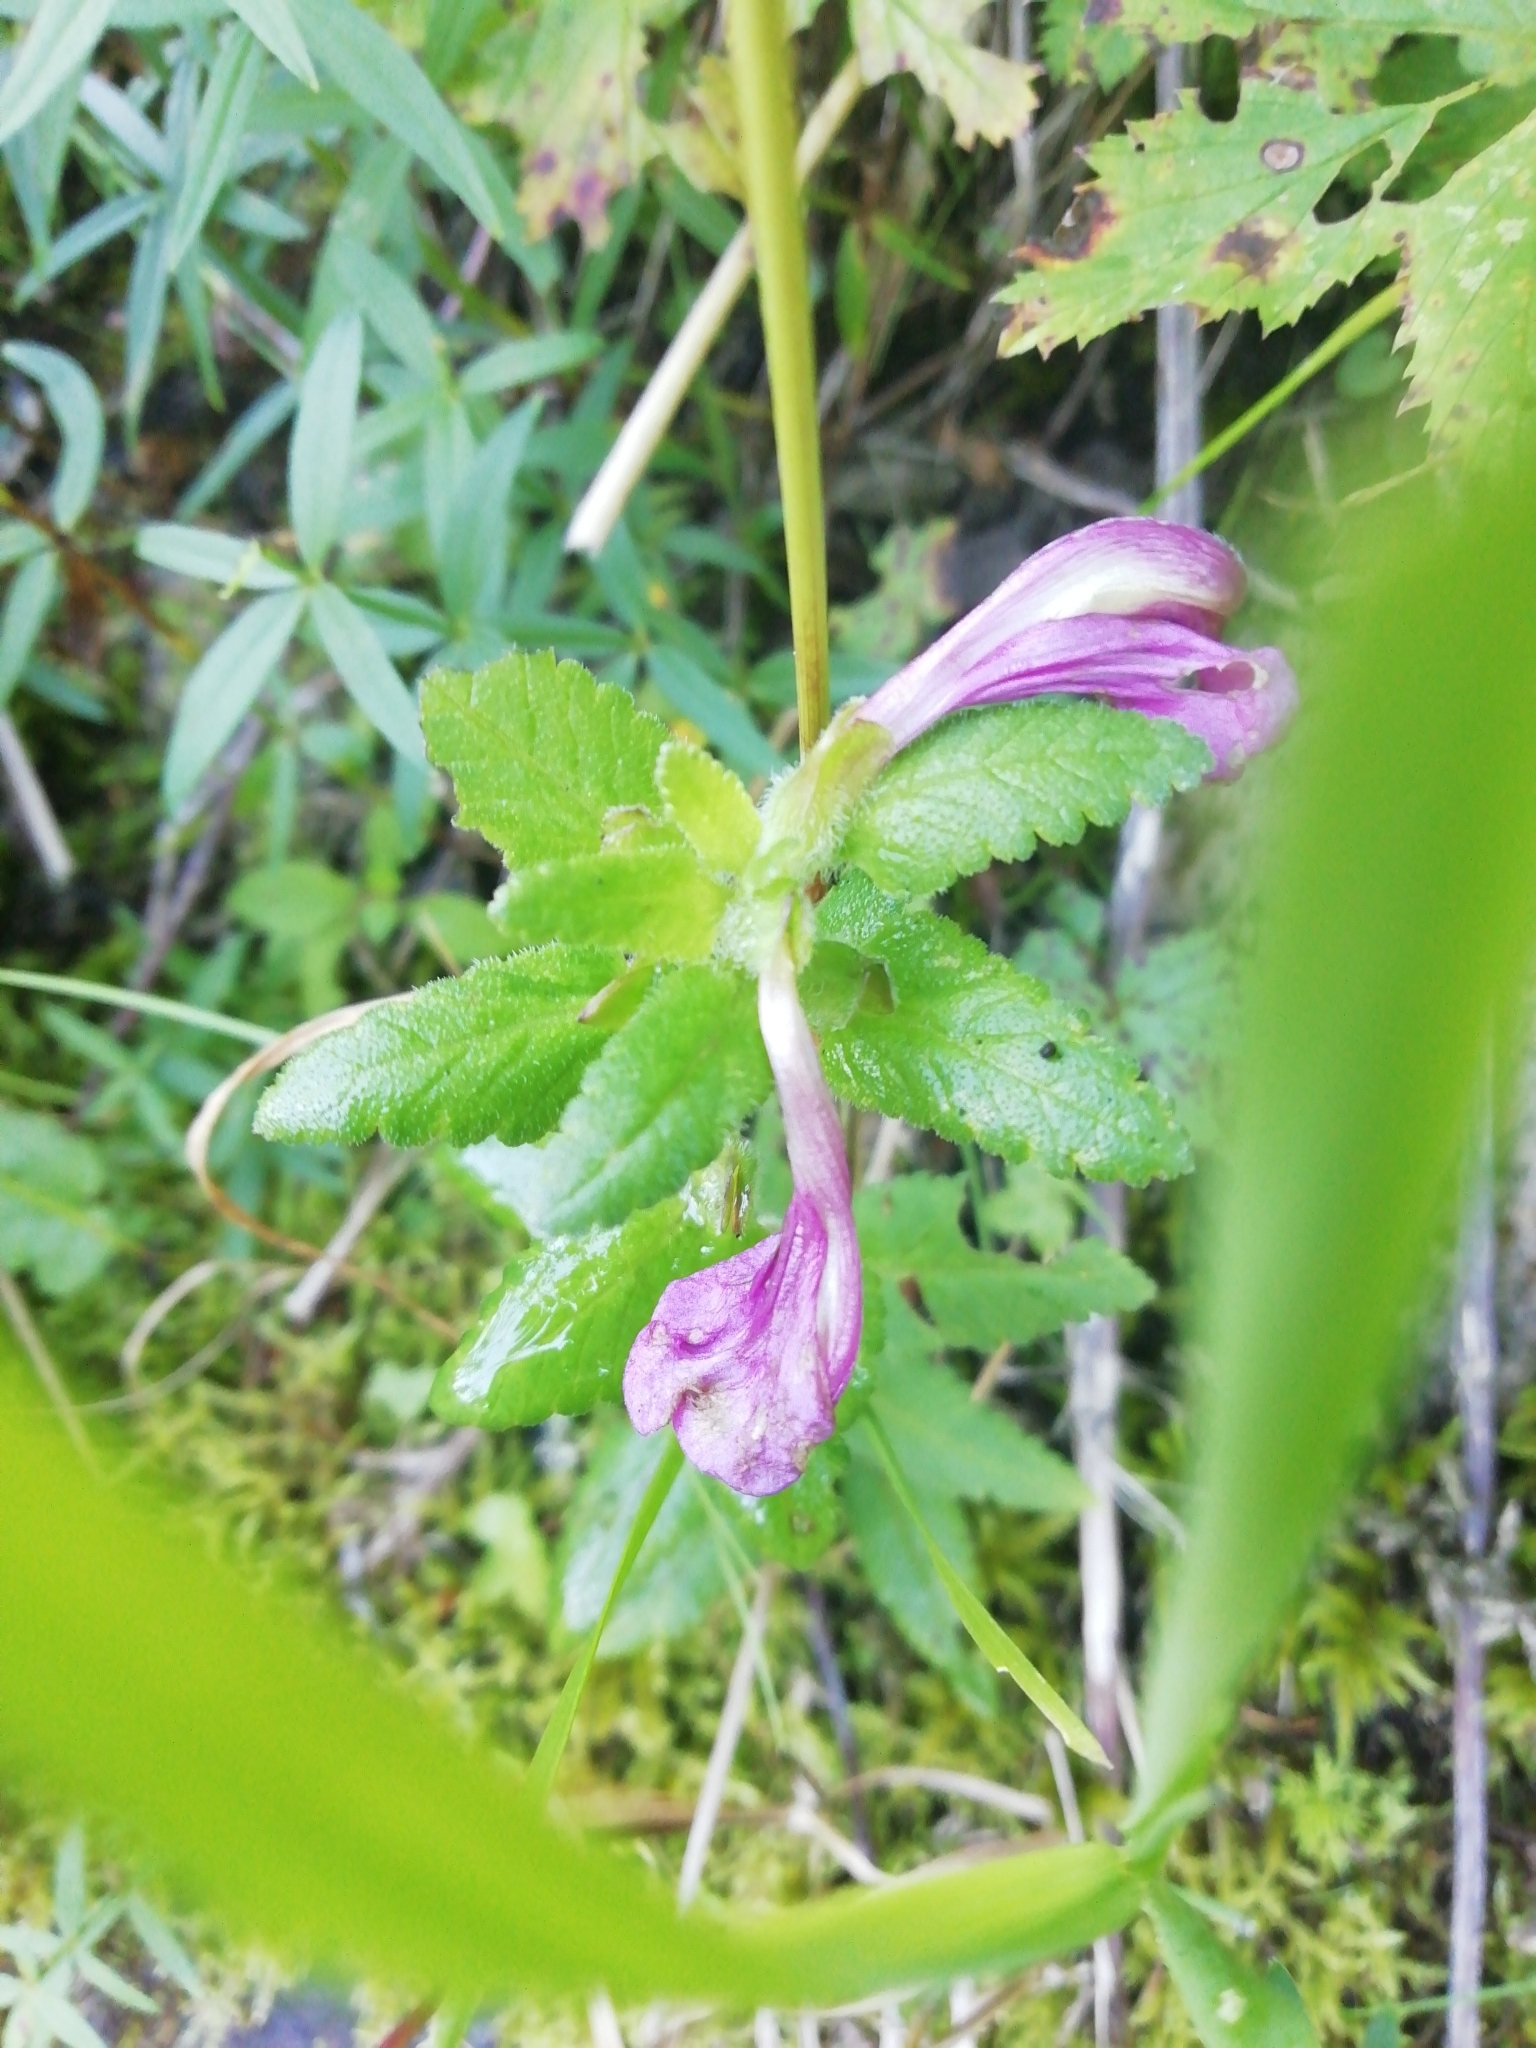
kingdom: Plantae
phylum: Tracheophyta
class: Magnoliopsida
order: Lamiales
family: Orobanchaceae
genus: Pedicularis
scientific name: Pedicularis resupinata
